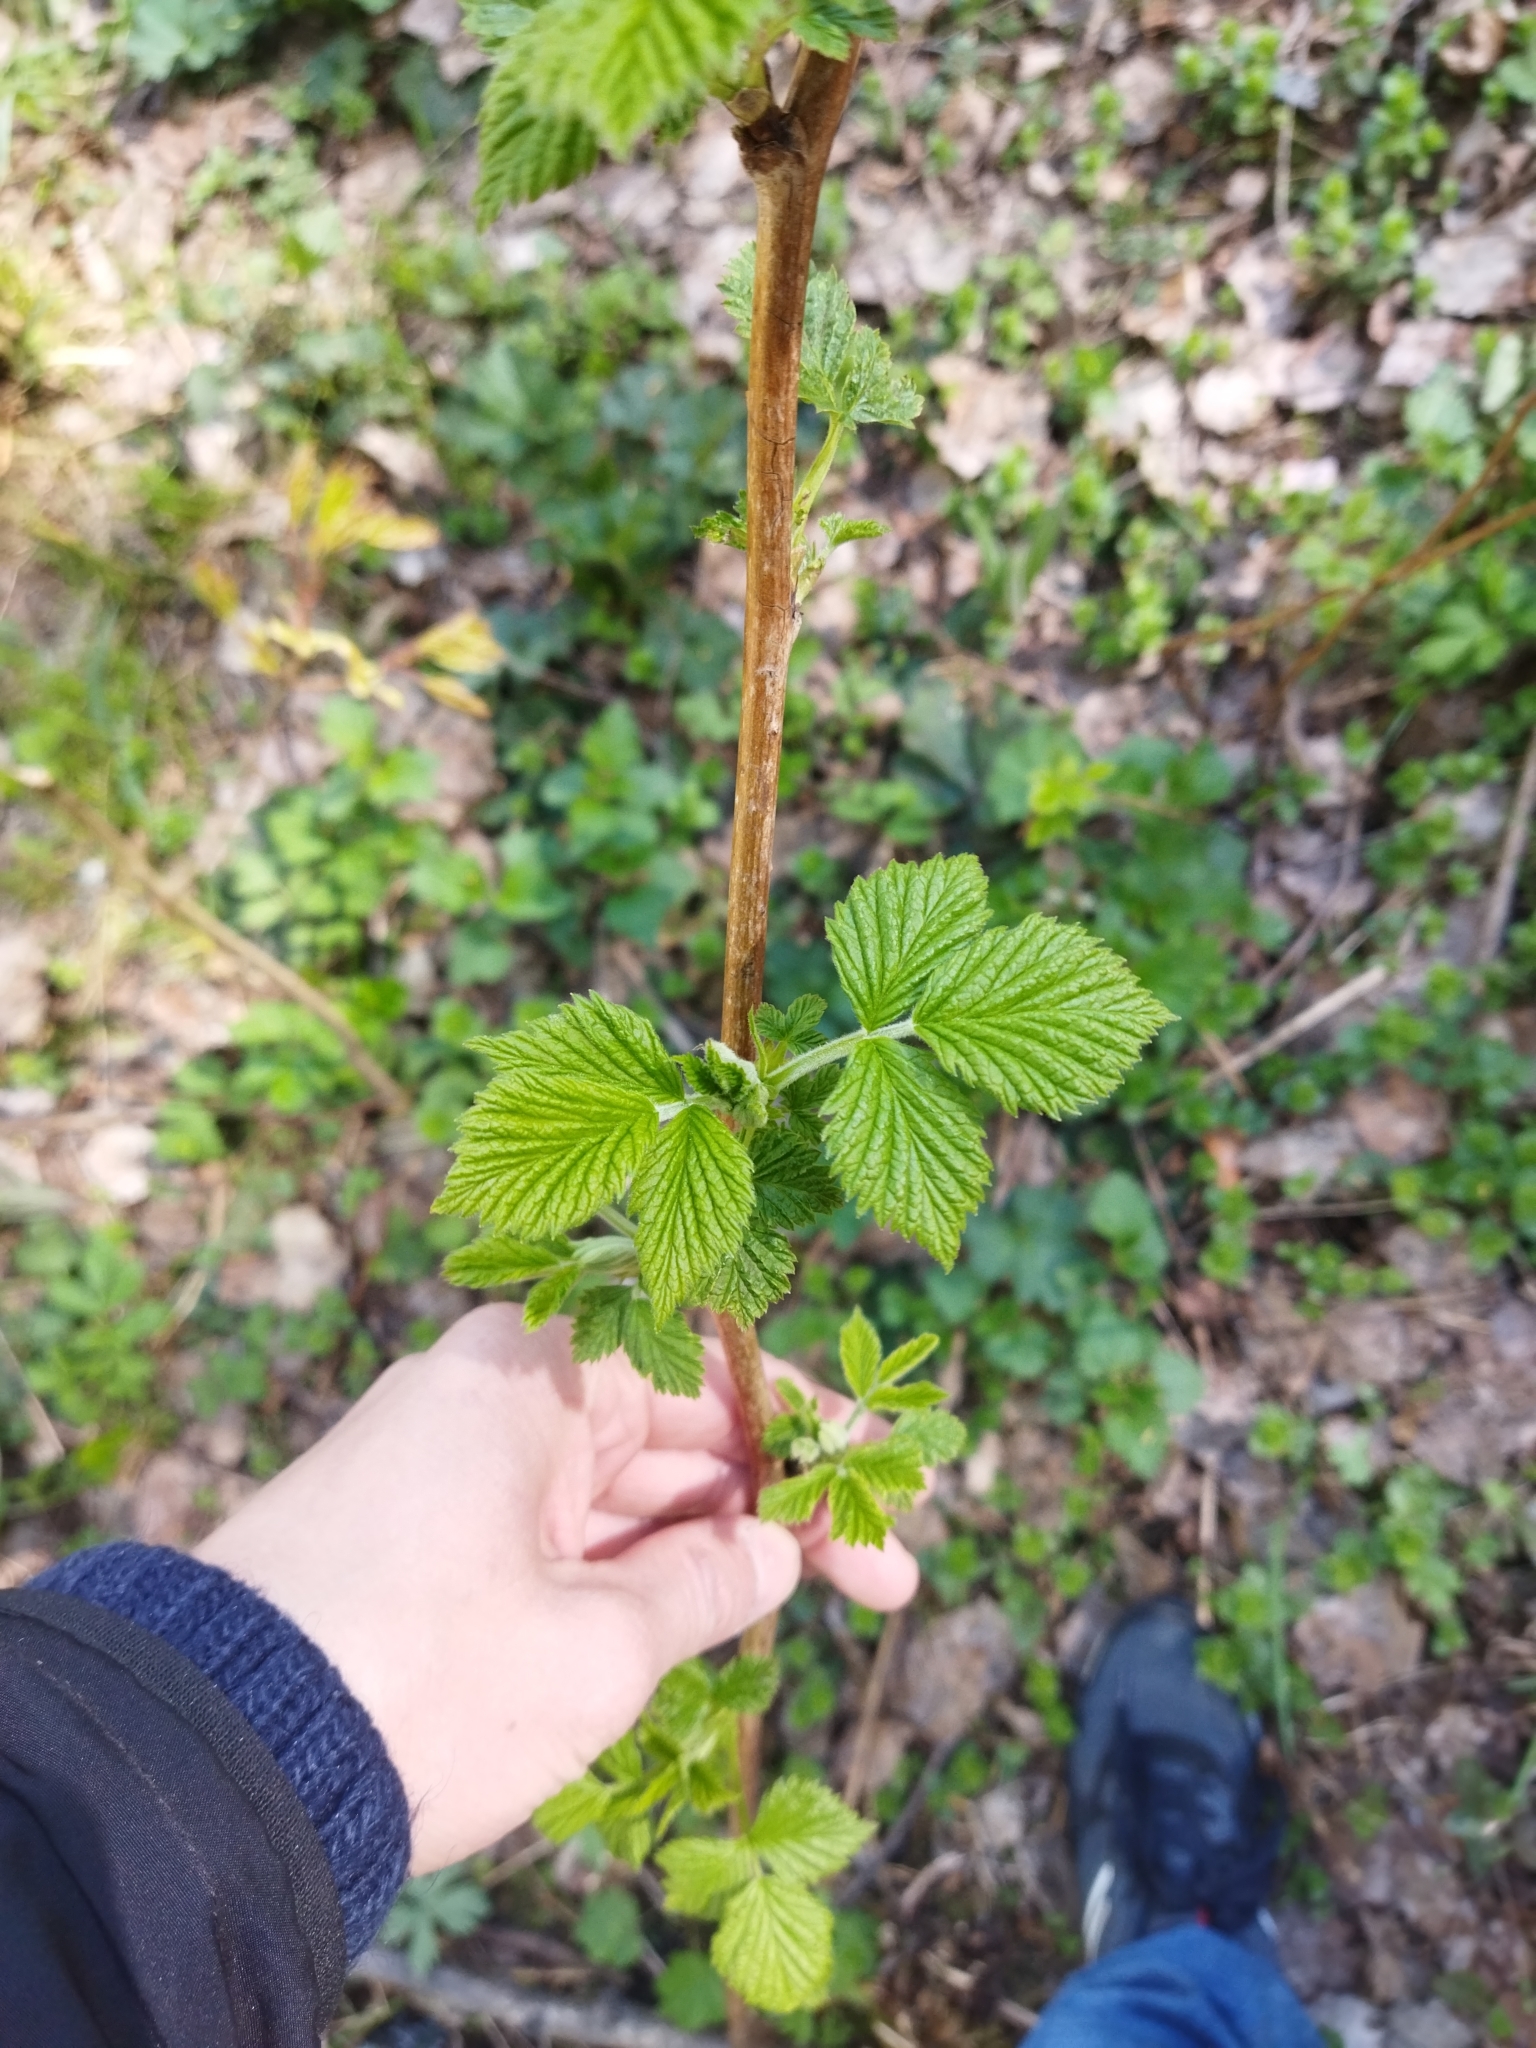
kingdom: Plantae
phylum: Tracheophyta
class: Magnoliopsida
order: Rosales
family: Rosaceae
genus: Rubus
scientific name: Rubus idaeus
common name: Raspberry
